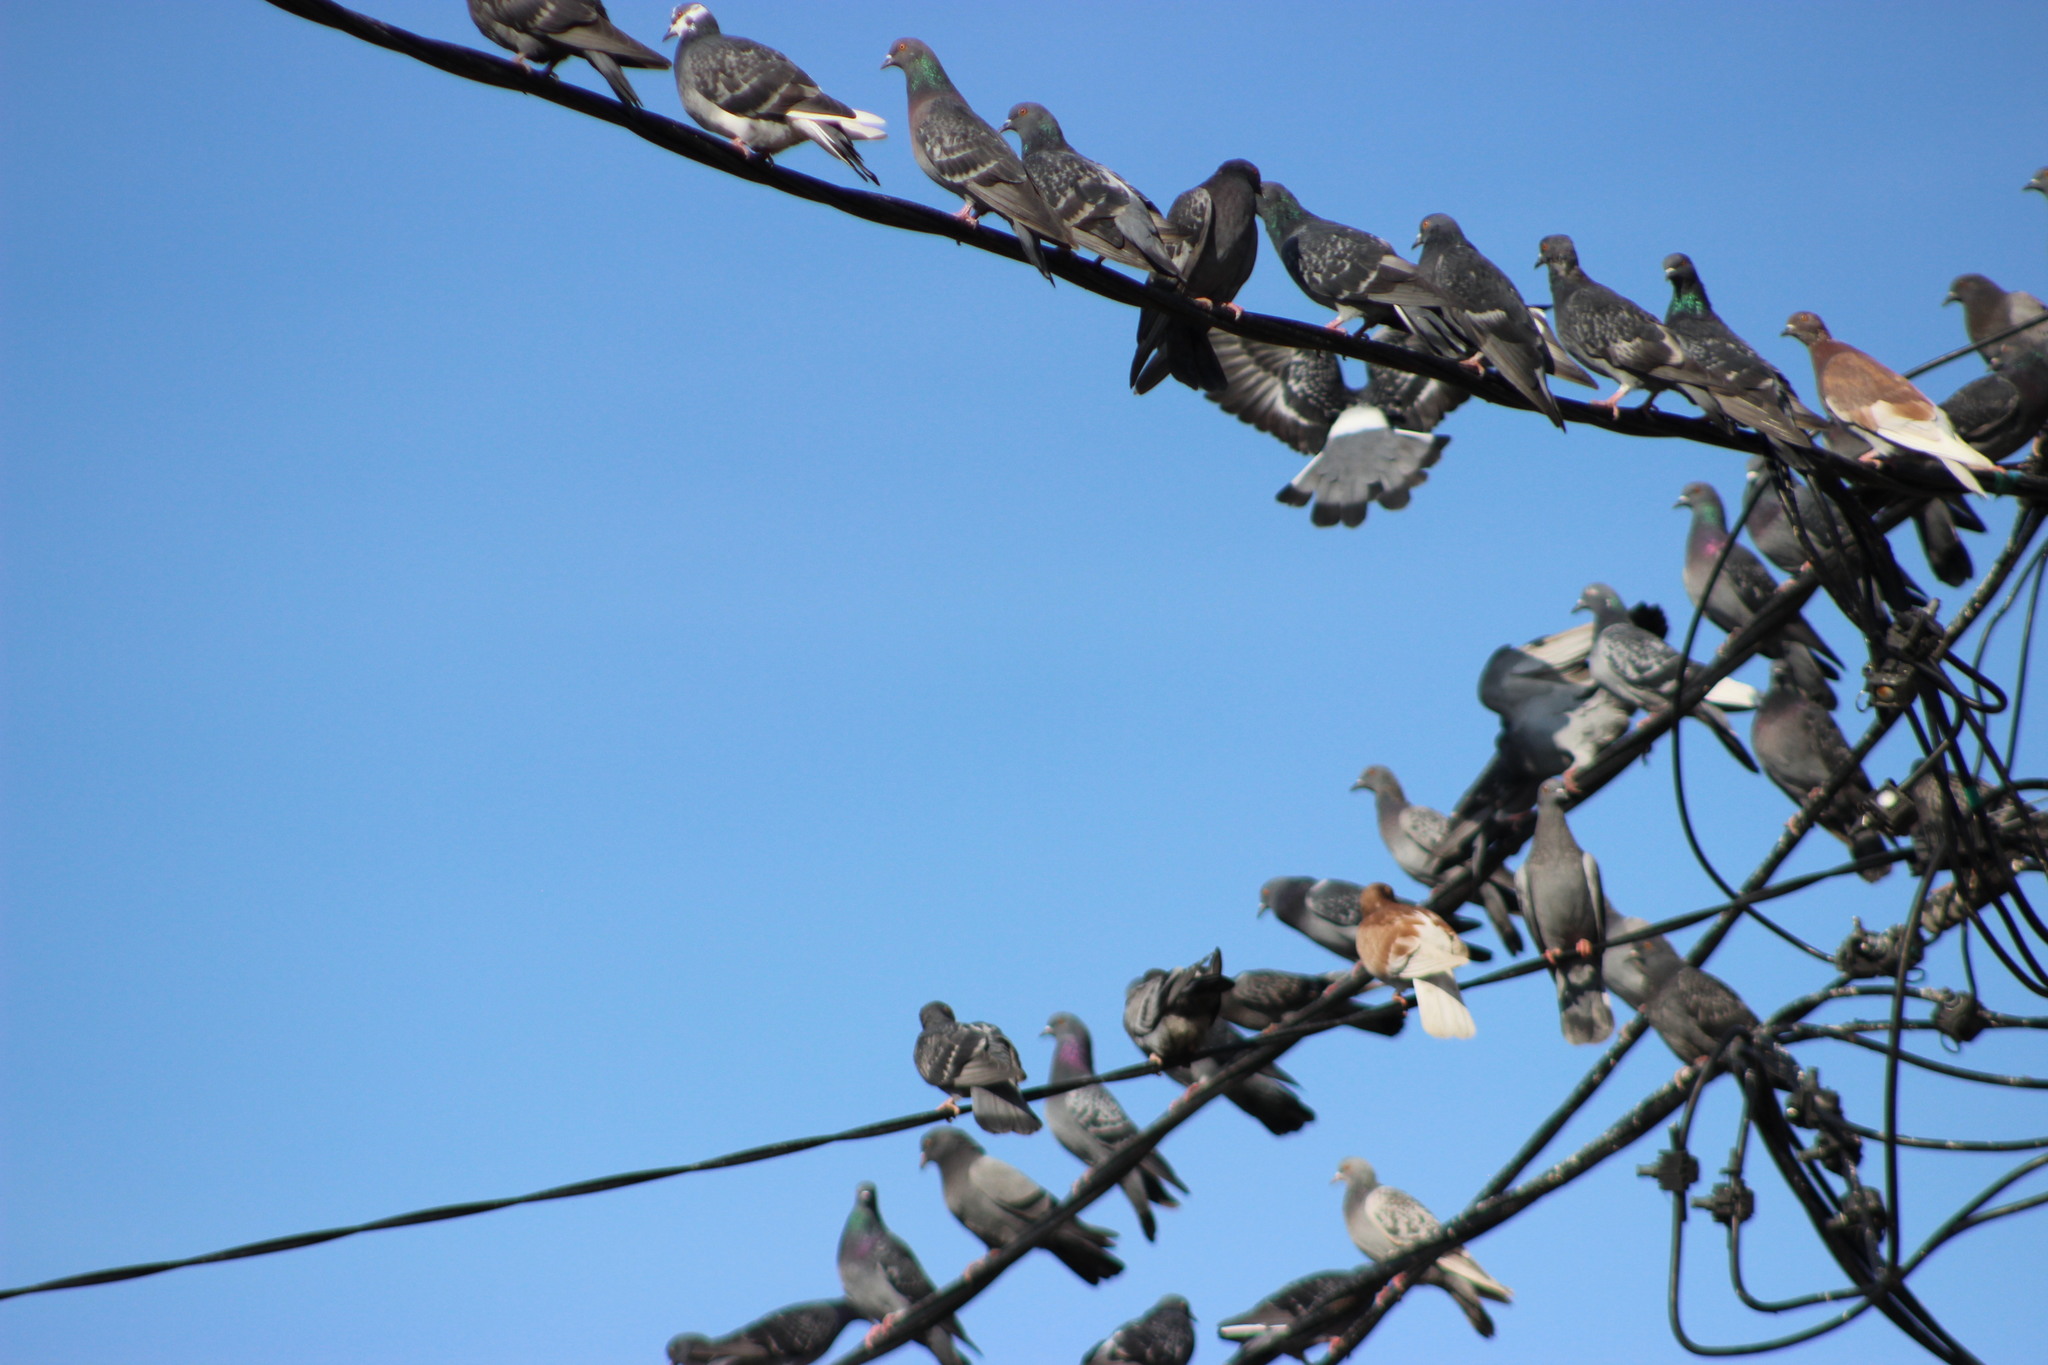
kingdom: Animalia
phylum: Chordata
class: Aves
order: Columbiformes
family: Columbidae
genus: Columba
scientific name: Columba livia
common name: Rock pigeon
